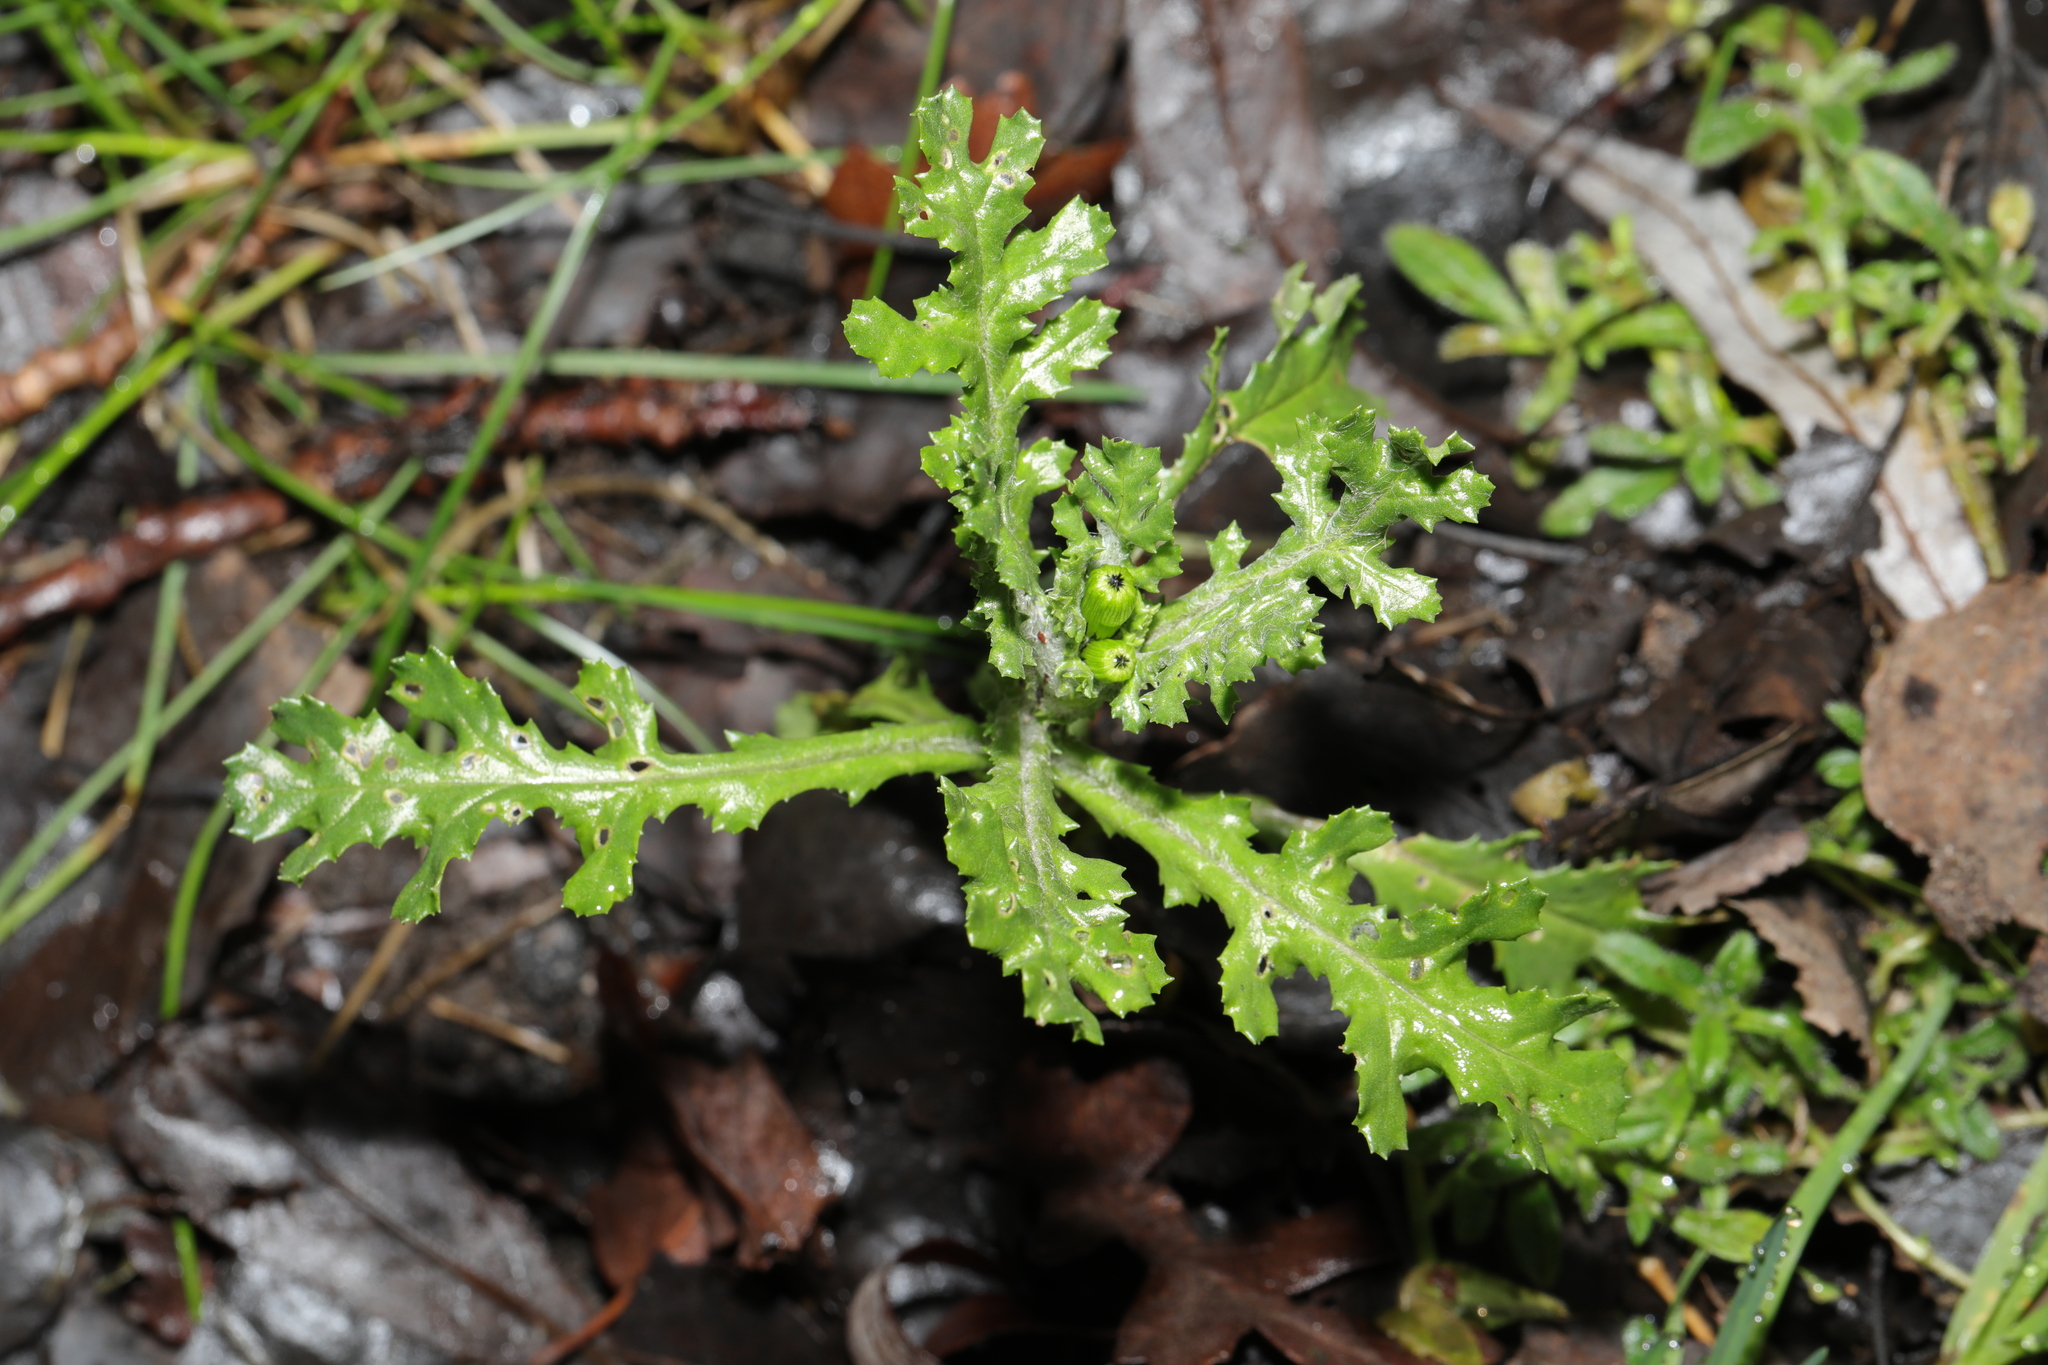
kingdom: Plantae
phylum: Tracheophyta
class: Magnoliopsida
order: Asterales
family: Asteraceae
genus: Senecio
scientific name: Senecio vulgaris
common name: Old-man-in-the-spring
